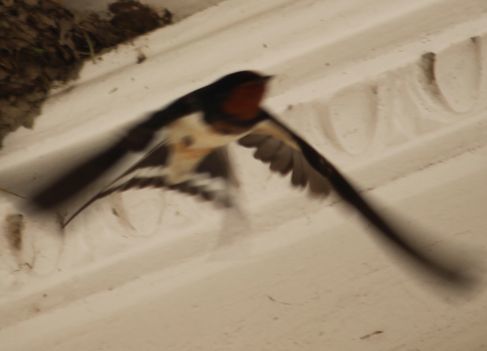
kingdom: Animalia
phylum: Chordata
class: Aves
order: Passeriformes
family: Hirundinidae
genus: Hirundo
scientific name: Hirundo rustica
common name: Barn swallow
